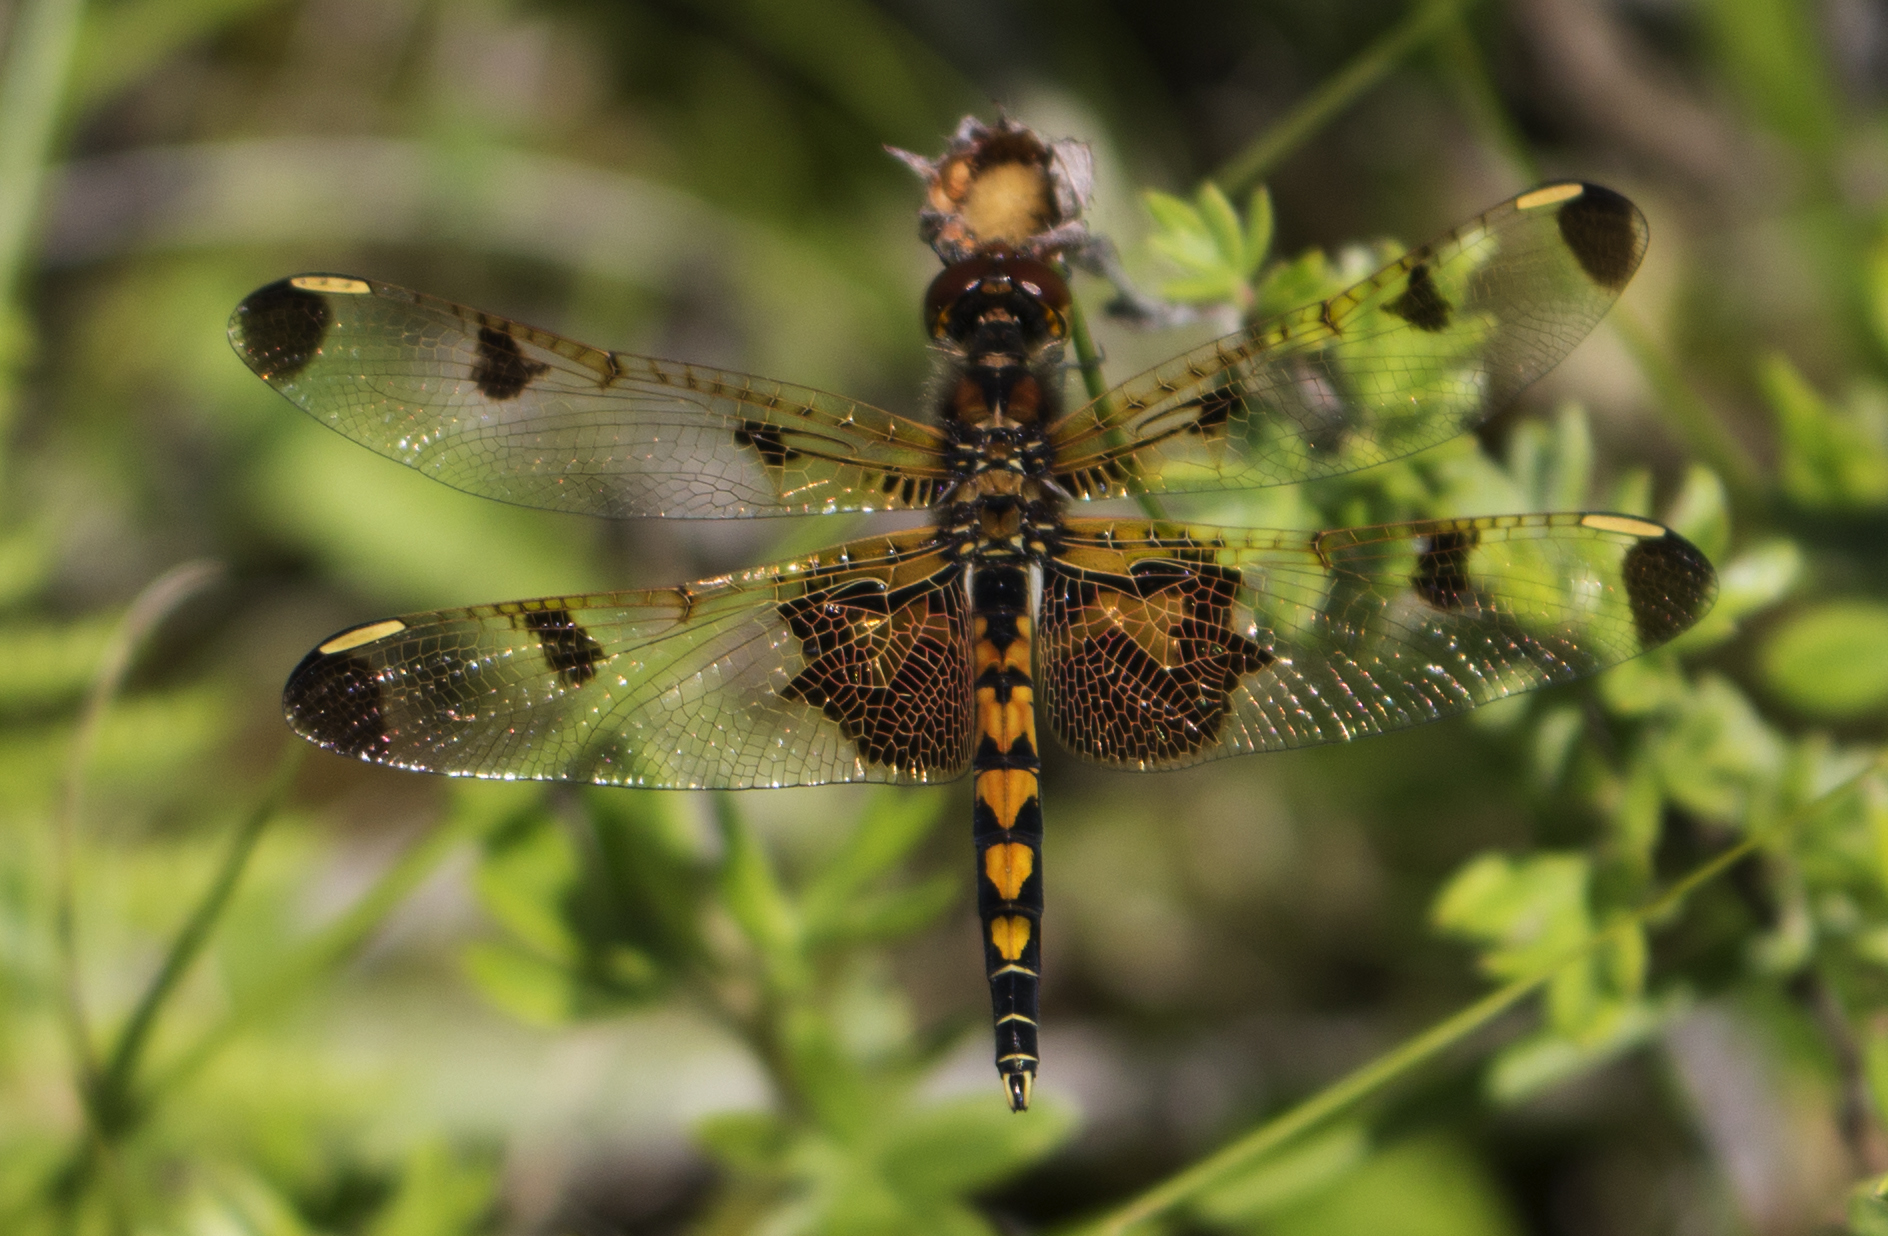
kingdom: Animalia
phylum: Arthropoda
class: Insecta
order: Odonata
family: Libellulidae
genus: Celithemis
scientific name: Celithemis elisa
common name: Calico pennant
